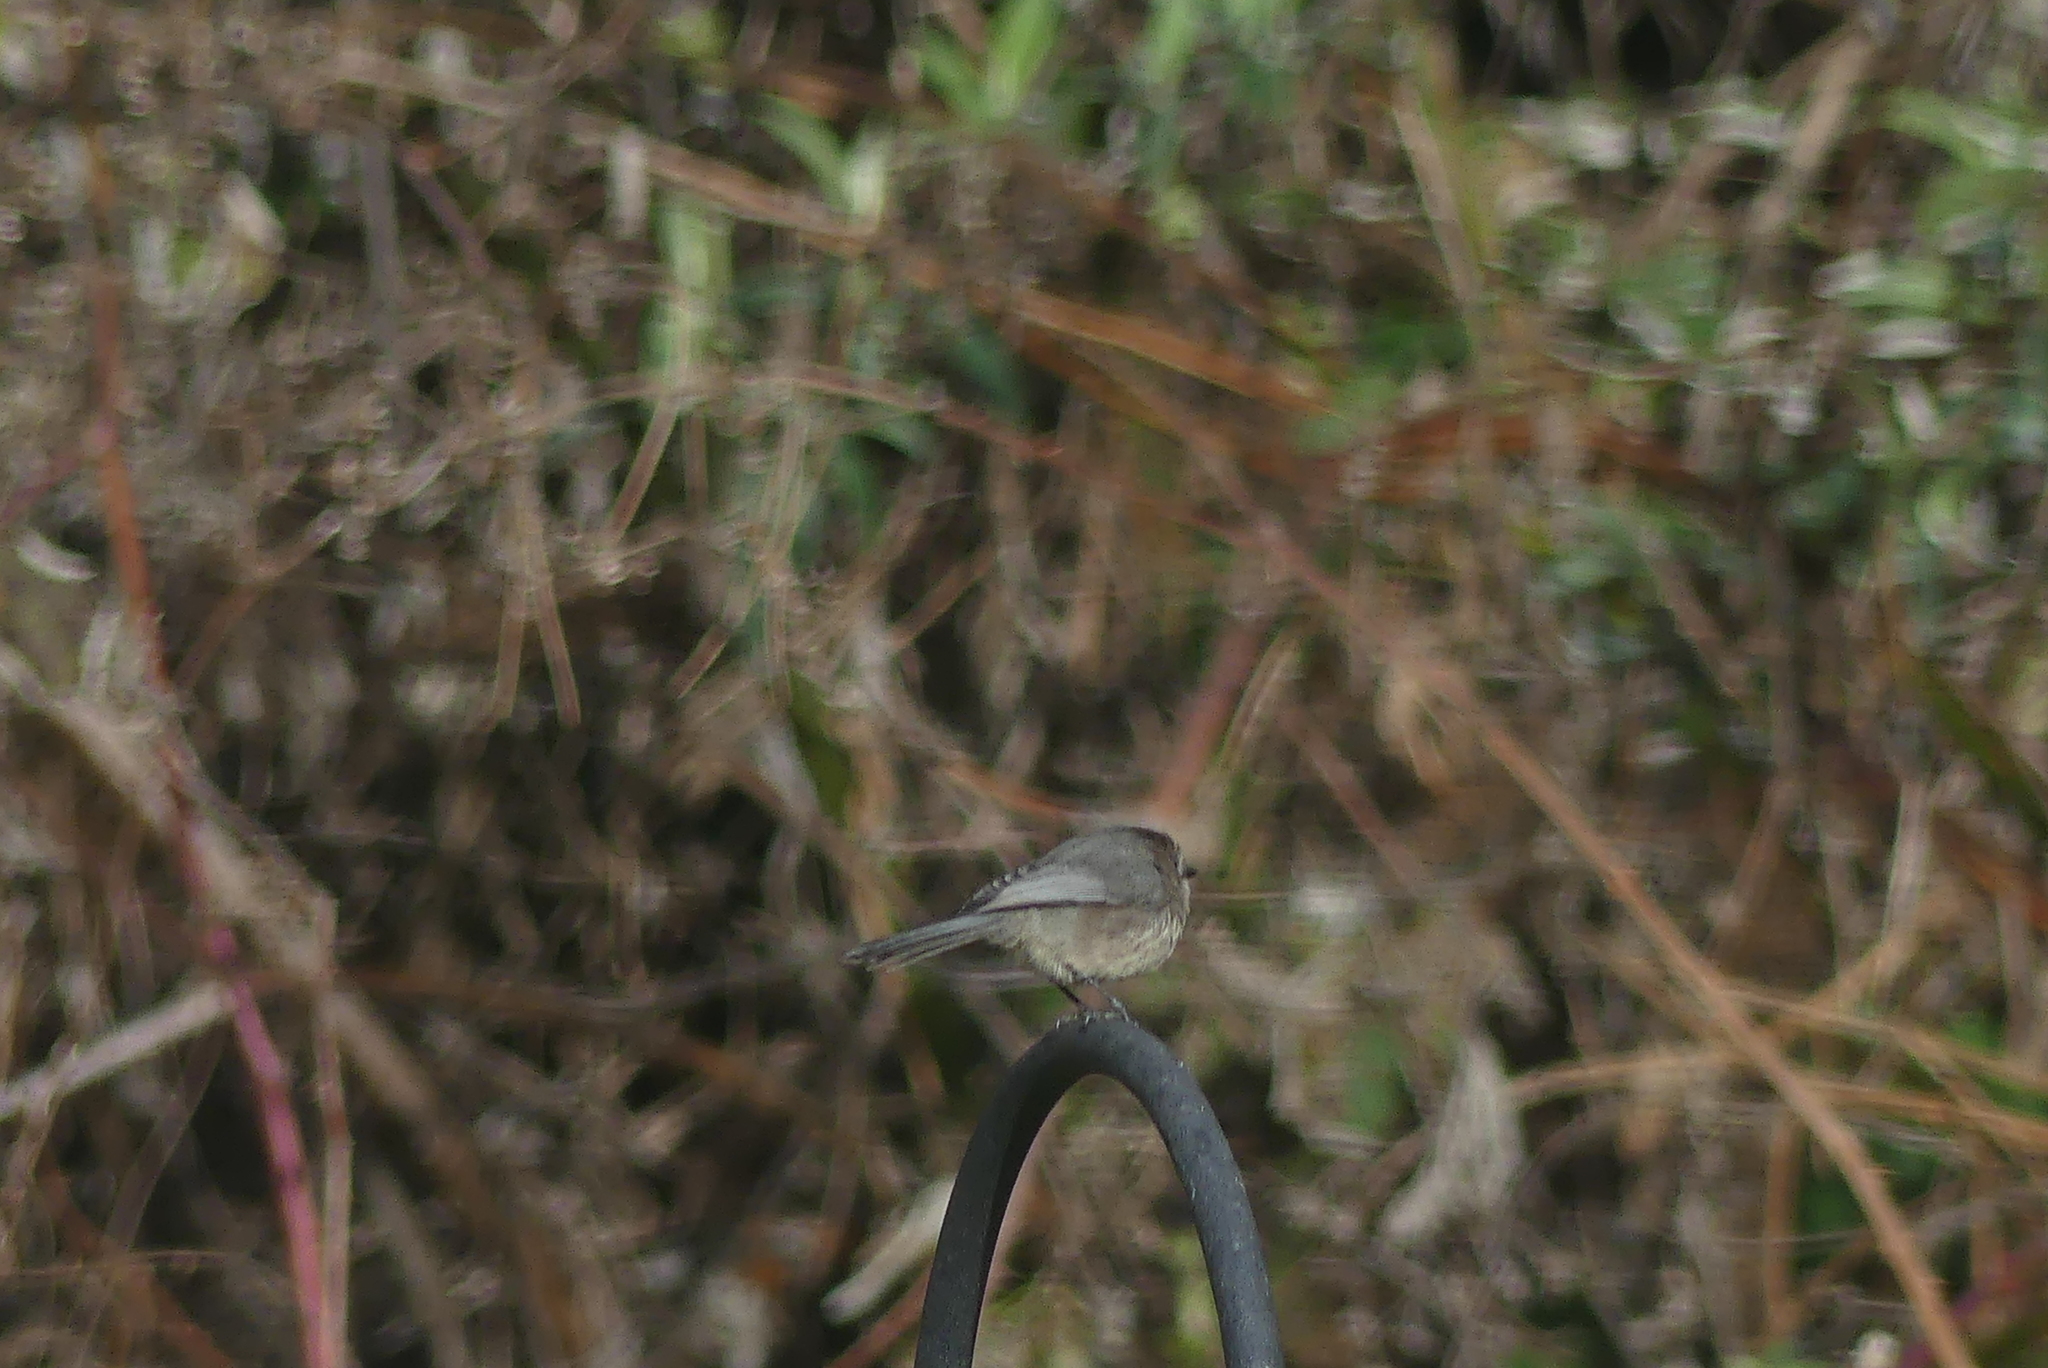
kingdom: Animalia
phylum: Chordata
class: Aves
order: Passeriformes
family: Aegithalidae
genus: Psaltriparus
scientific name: Psaltriparus minimus
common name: American bushtit
